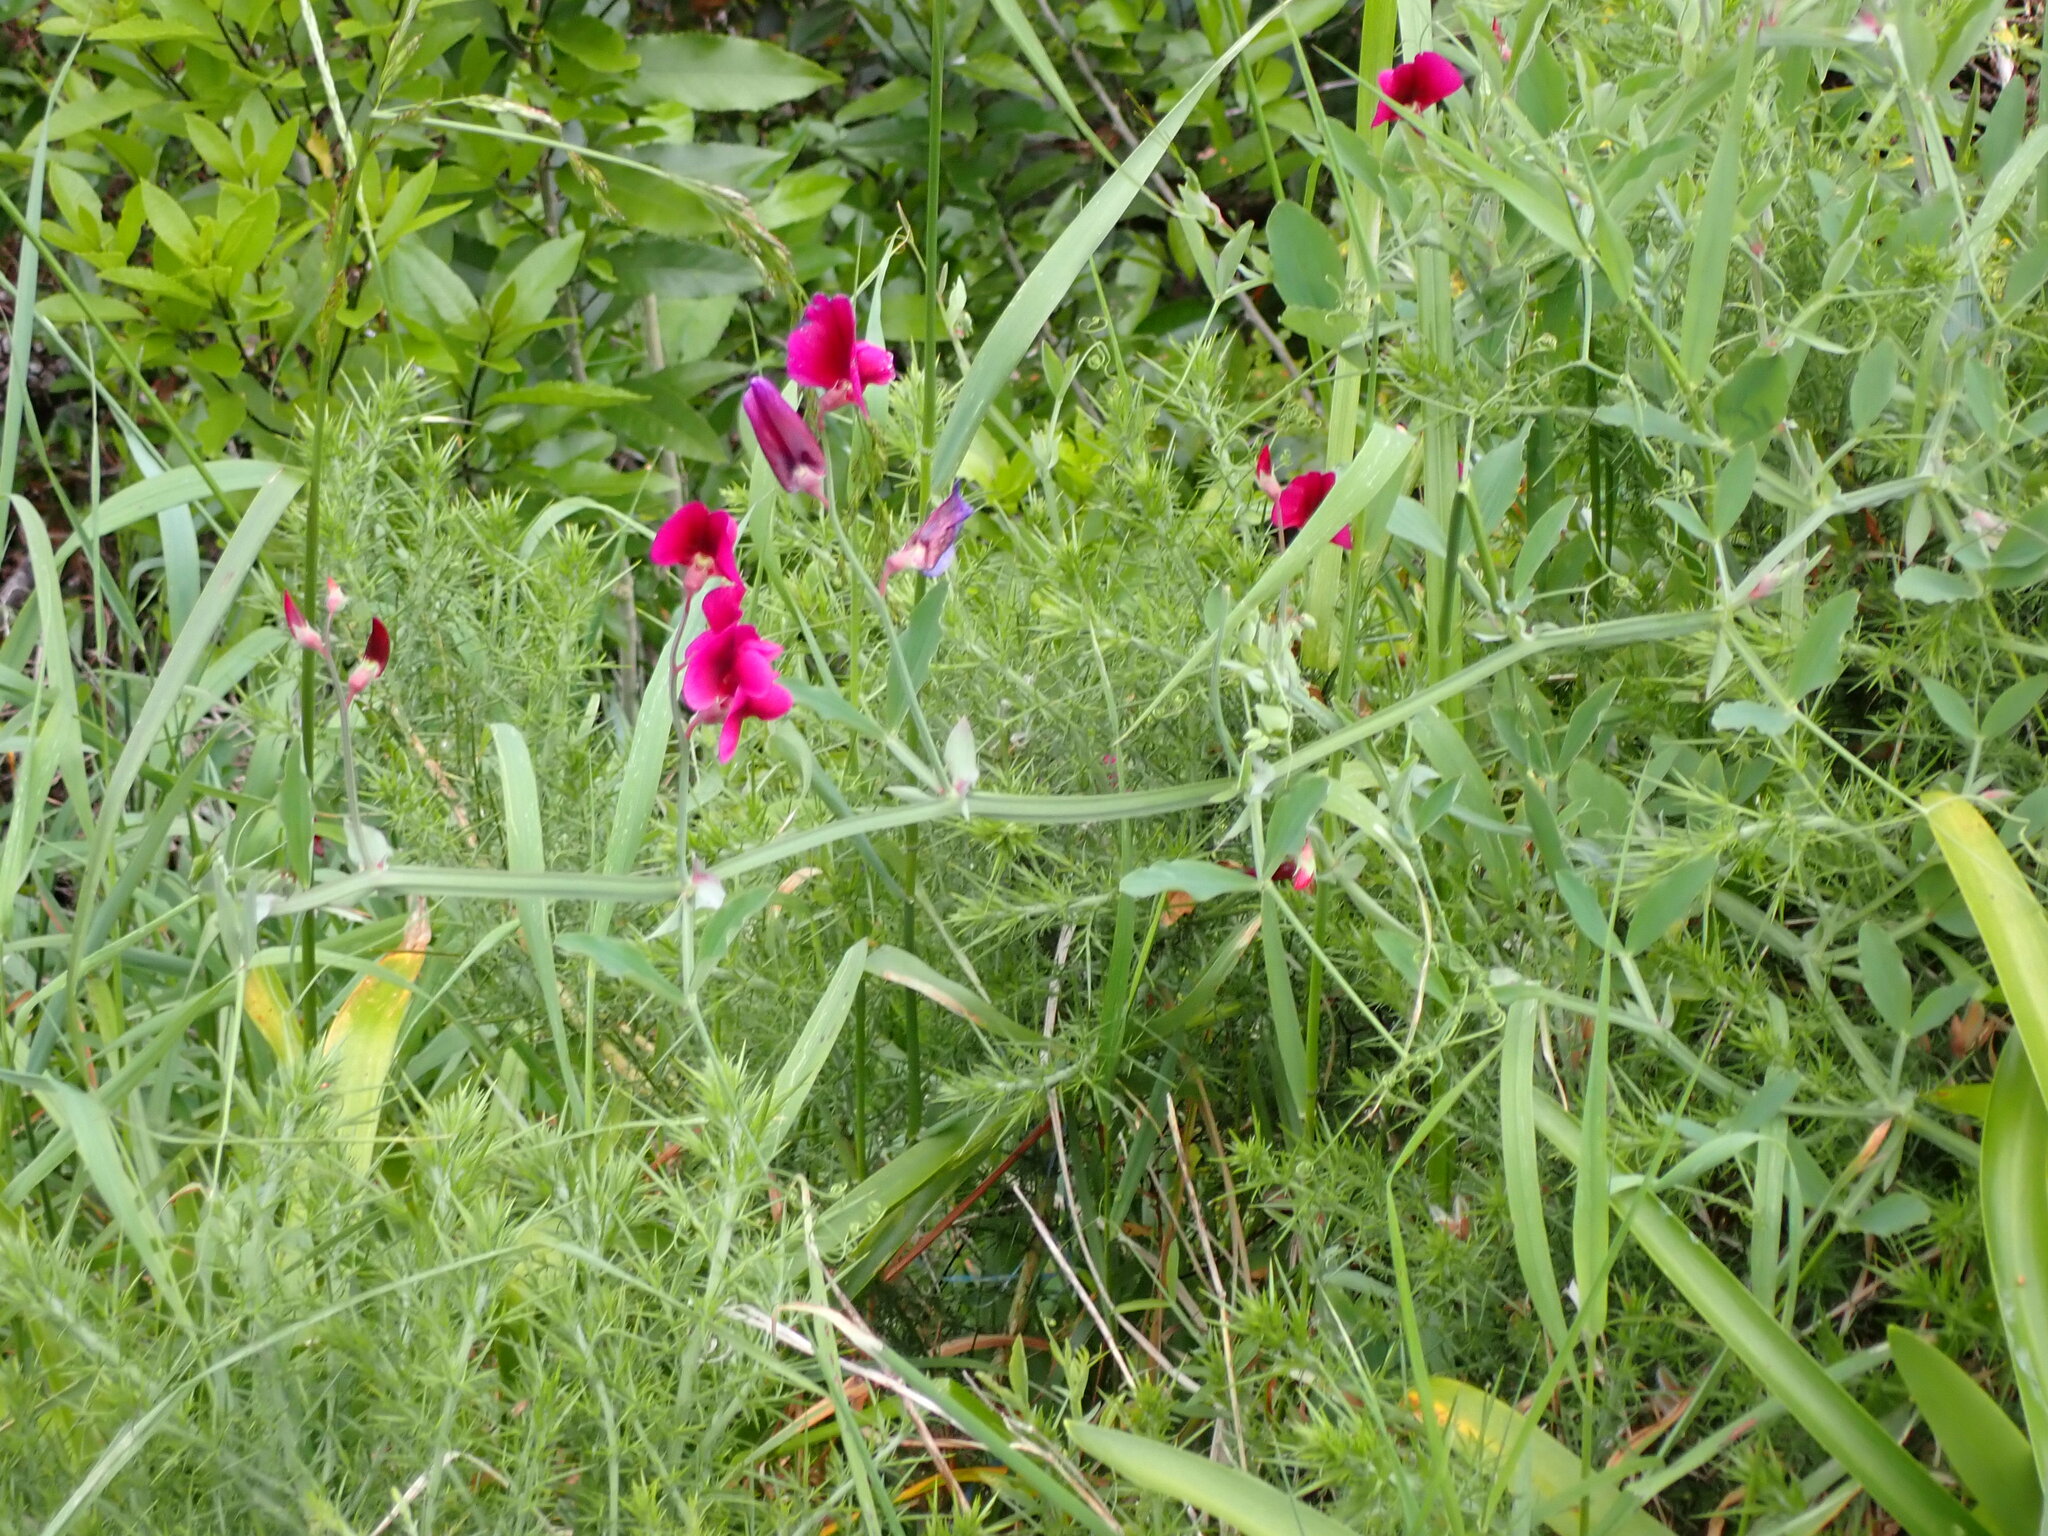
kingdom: Plantae
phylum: Tracheophyta
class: Magnoliopsida
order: Fabales
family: Fabaceae
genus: Lathyrus
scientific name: Lathyrus tingitanus
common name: Tangier pea
